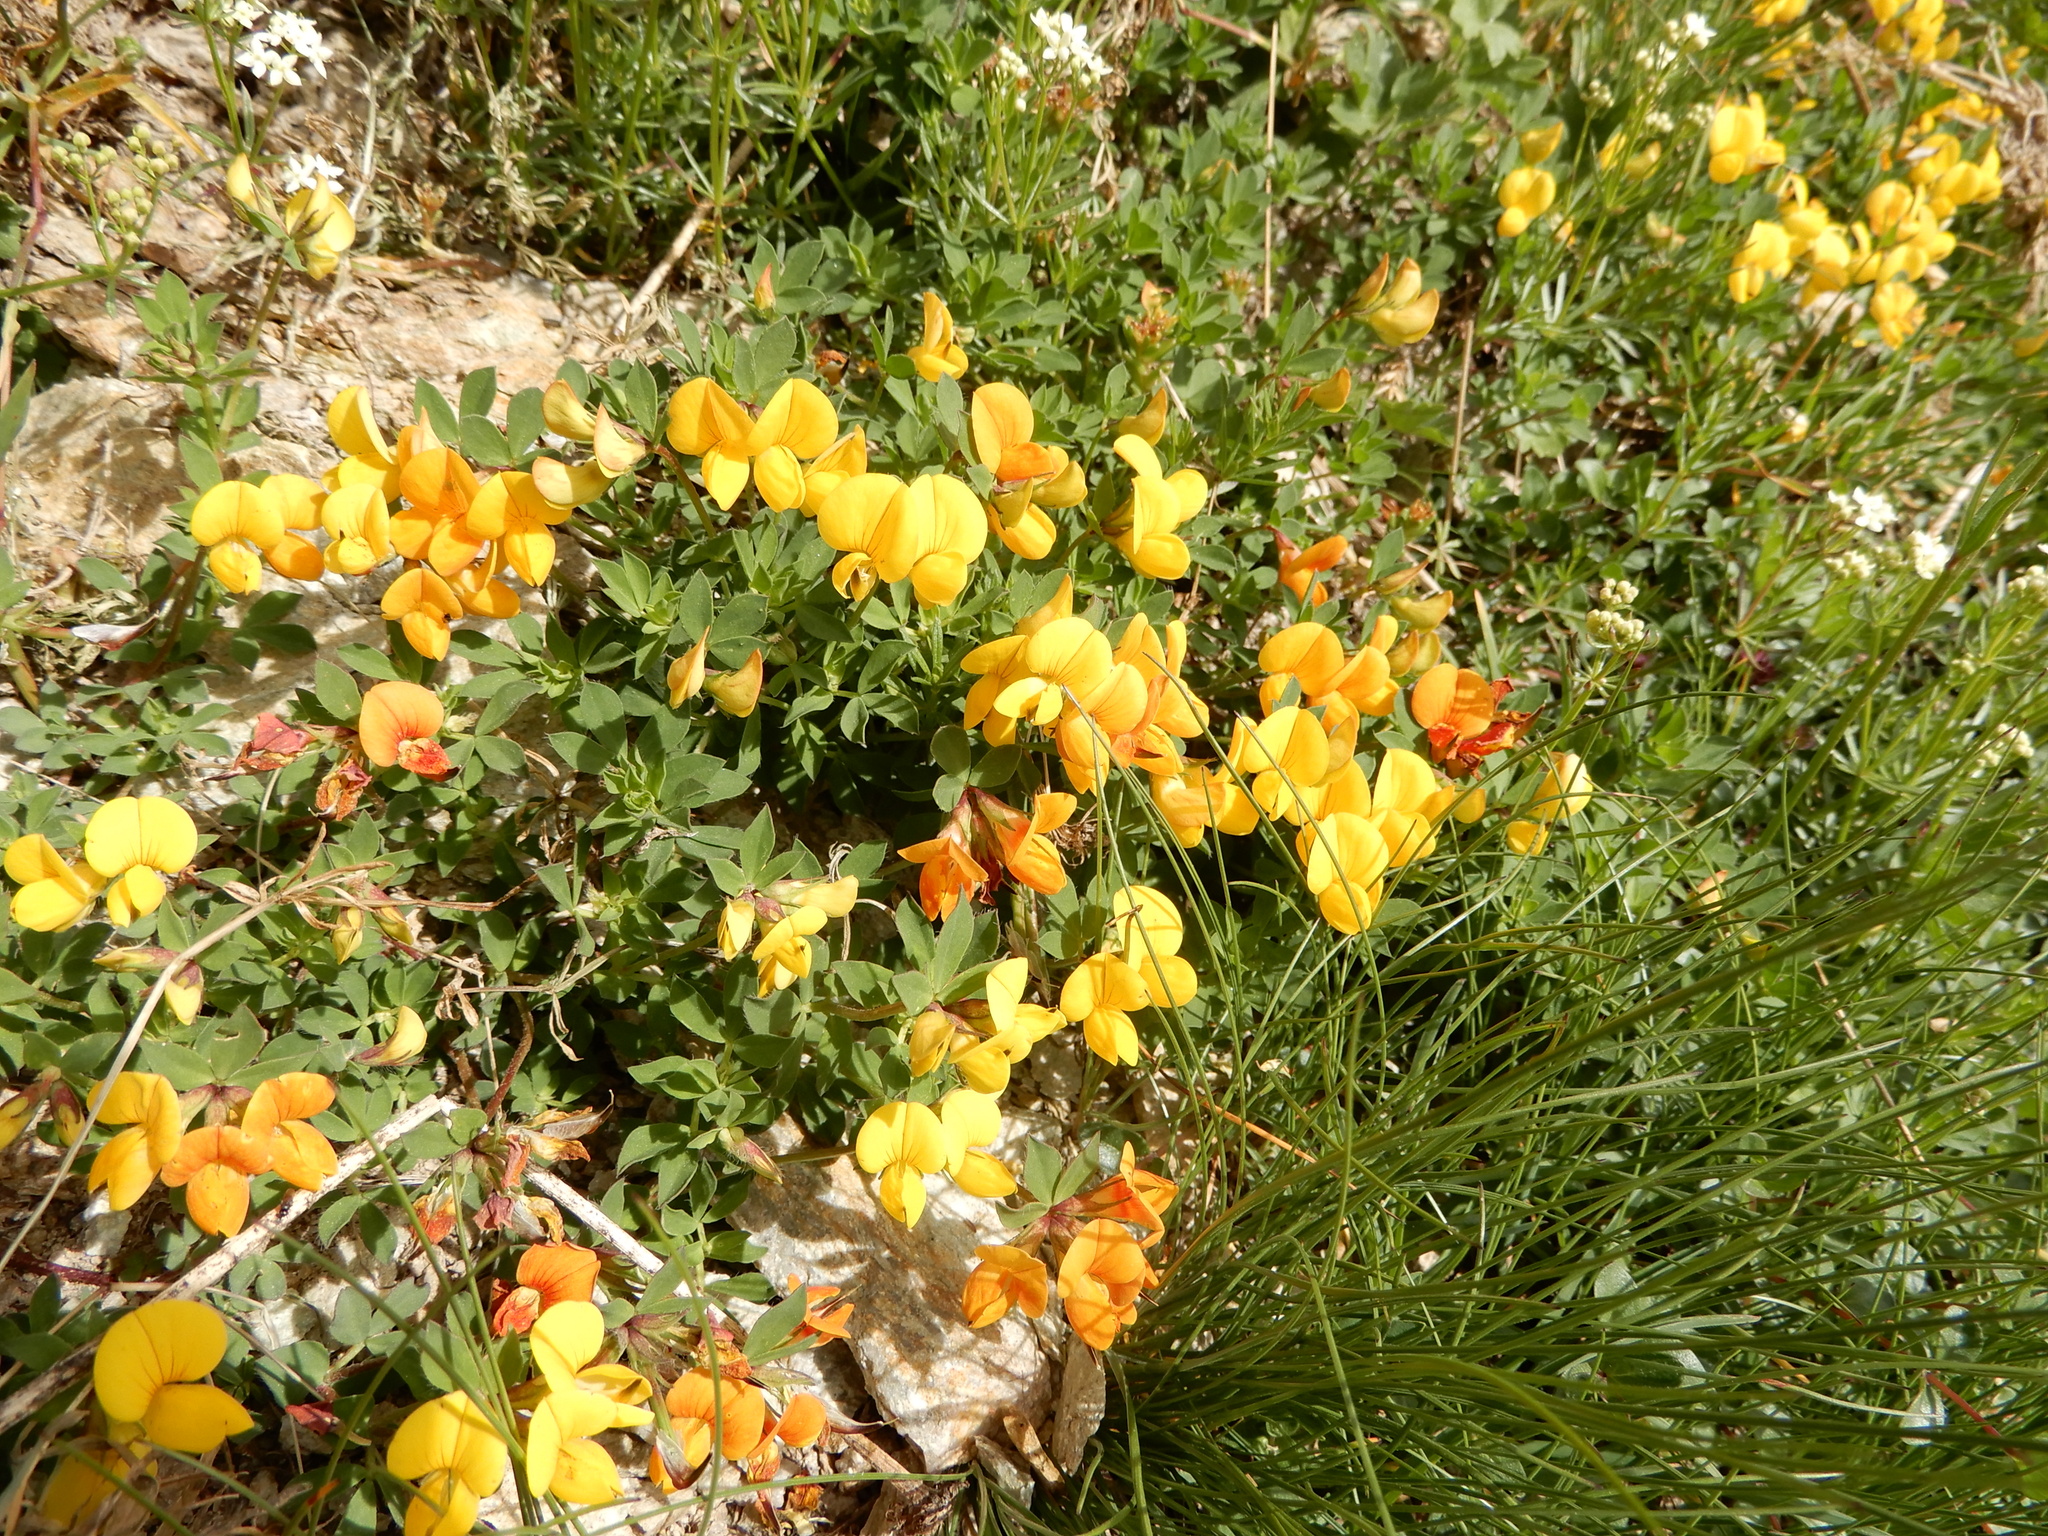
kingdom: Plantae
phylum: Tracheophyta
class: Magnoliopsida
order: Fabales
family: Fabaceae
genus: Lotus
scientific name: Lotus alpinus
